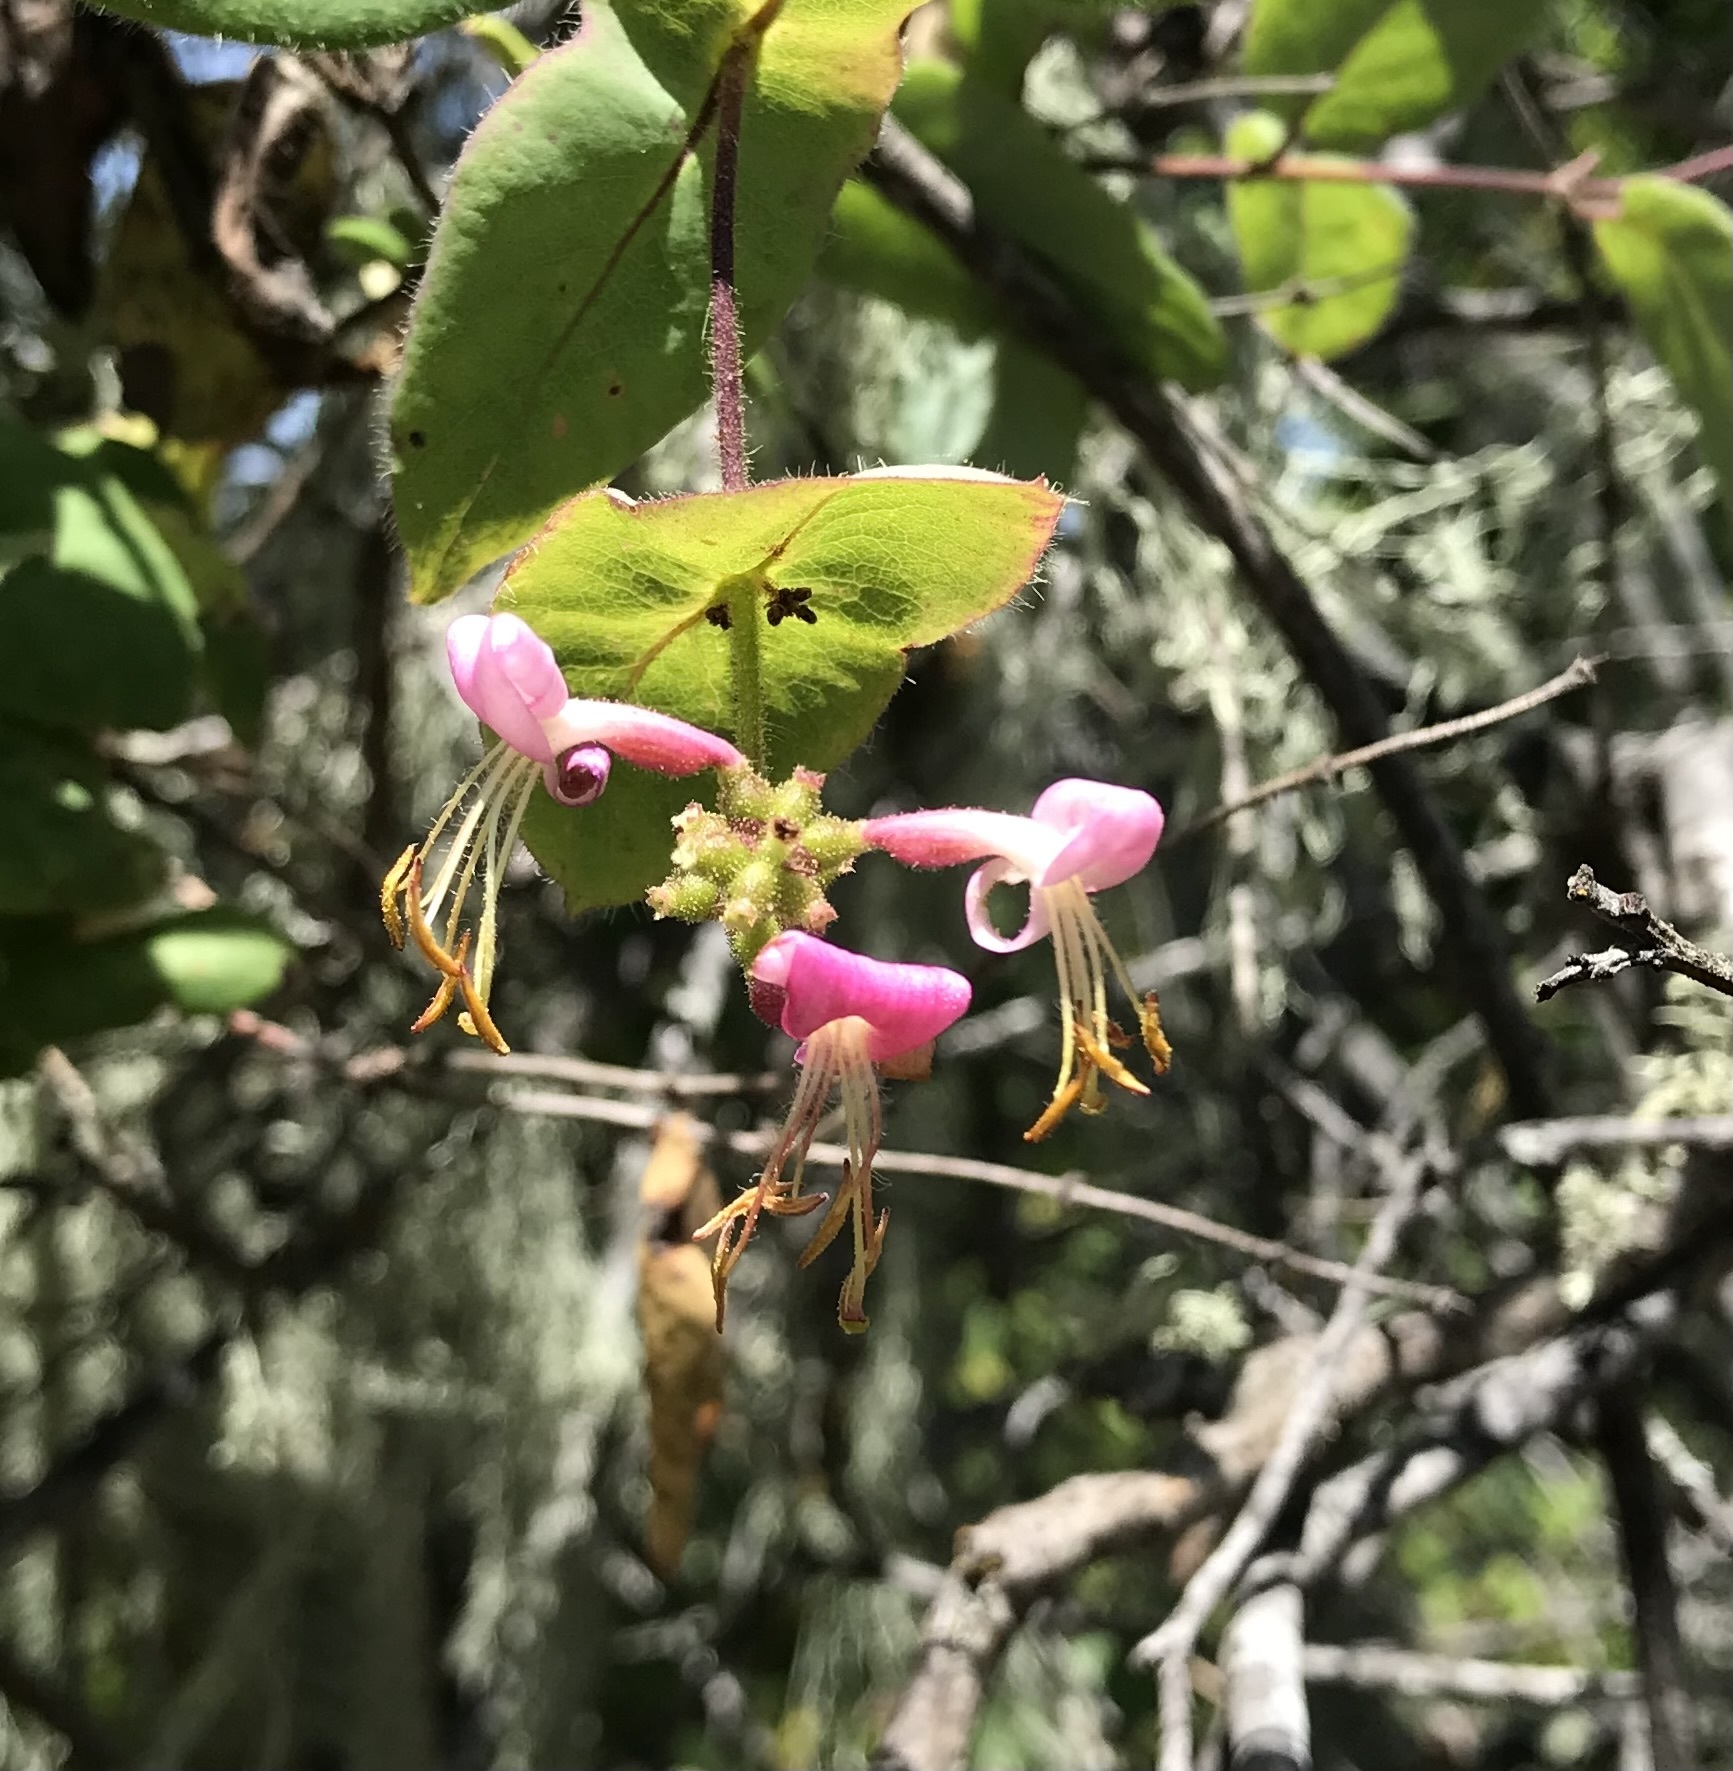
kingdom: Plantae
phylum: Tracheophyta
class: Magnoliopsida
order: Dipsacales
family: Caprifoliaceae
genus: Lonicera
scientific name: Lonicera hispidula
